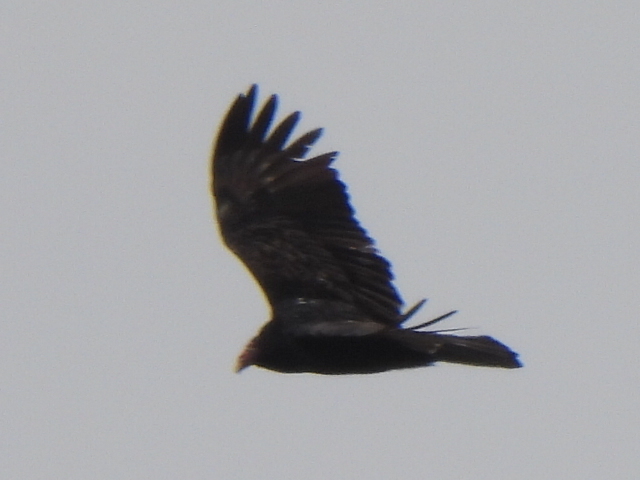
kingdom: Animalia
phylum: Chordata
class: Aves
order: Accipitriformes
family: Cathartidae
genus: Cathartes
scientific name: Cathartes aura
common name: Turkey vulture
